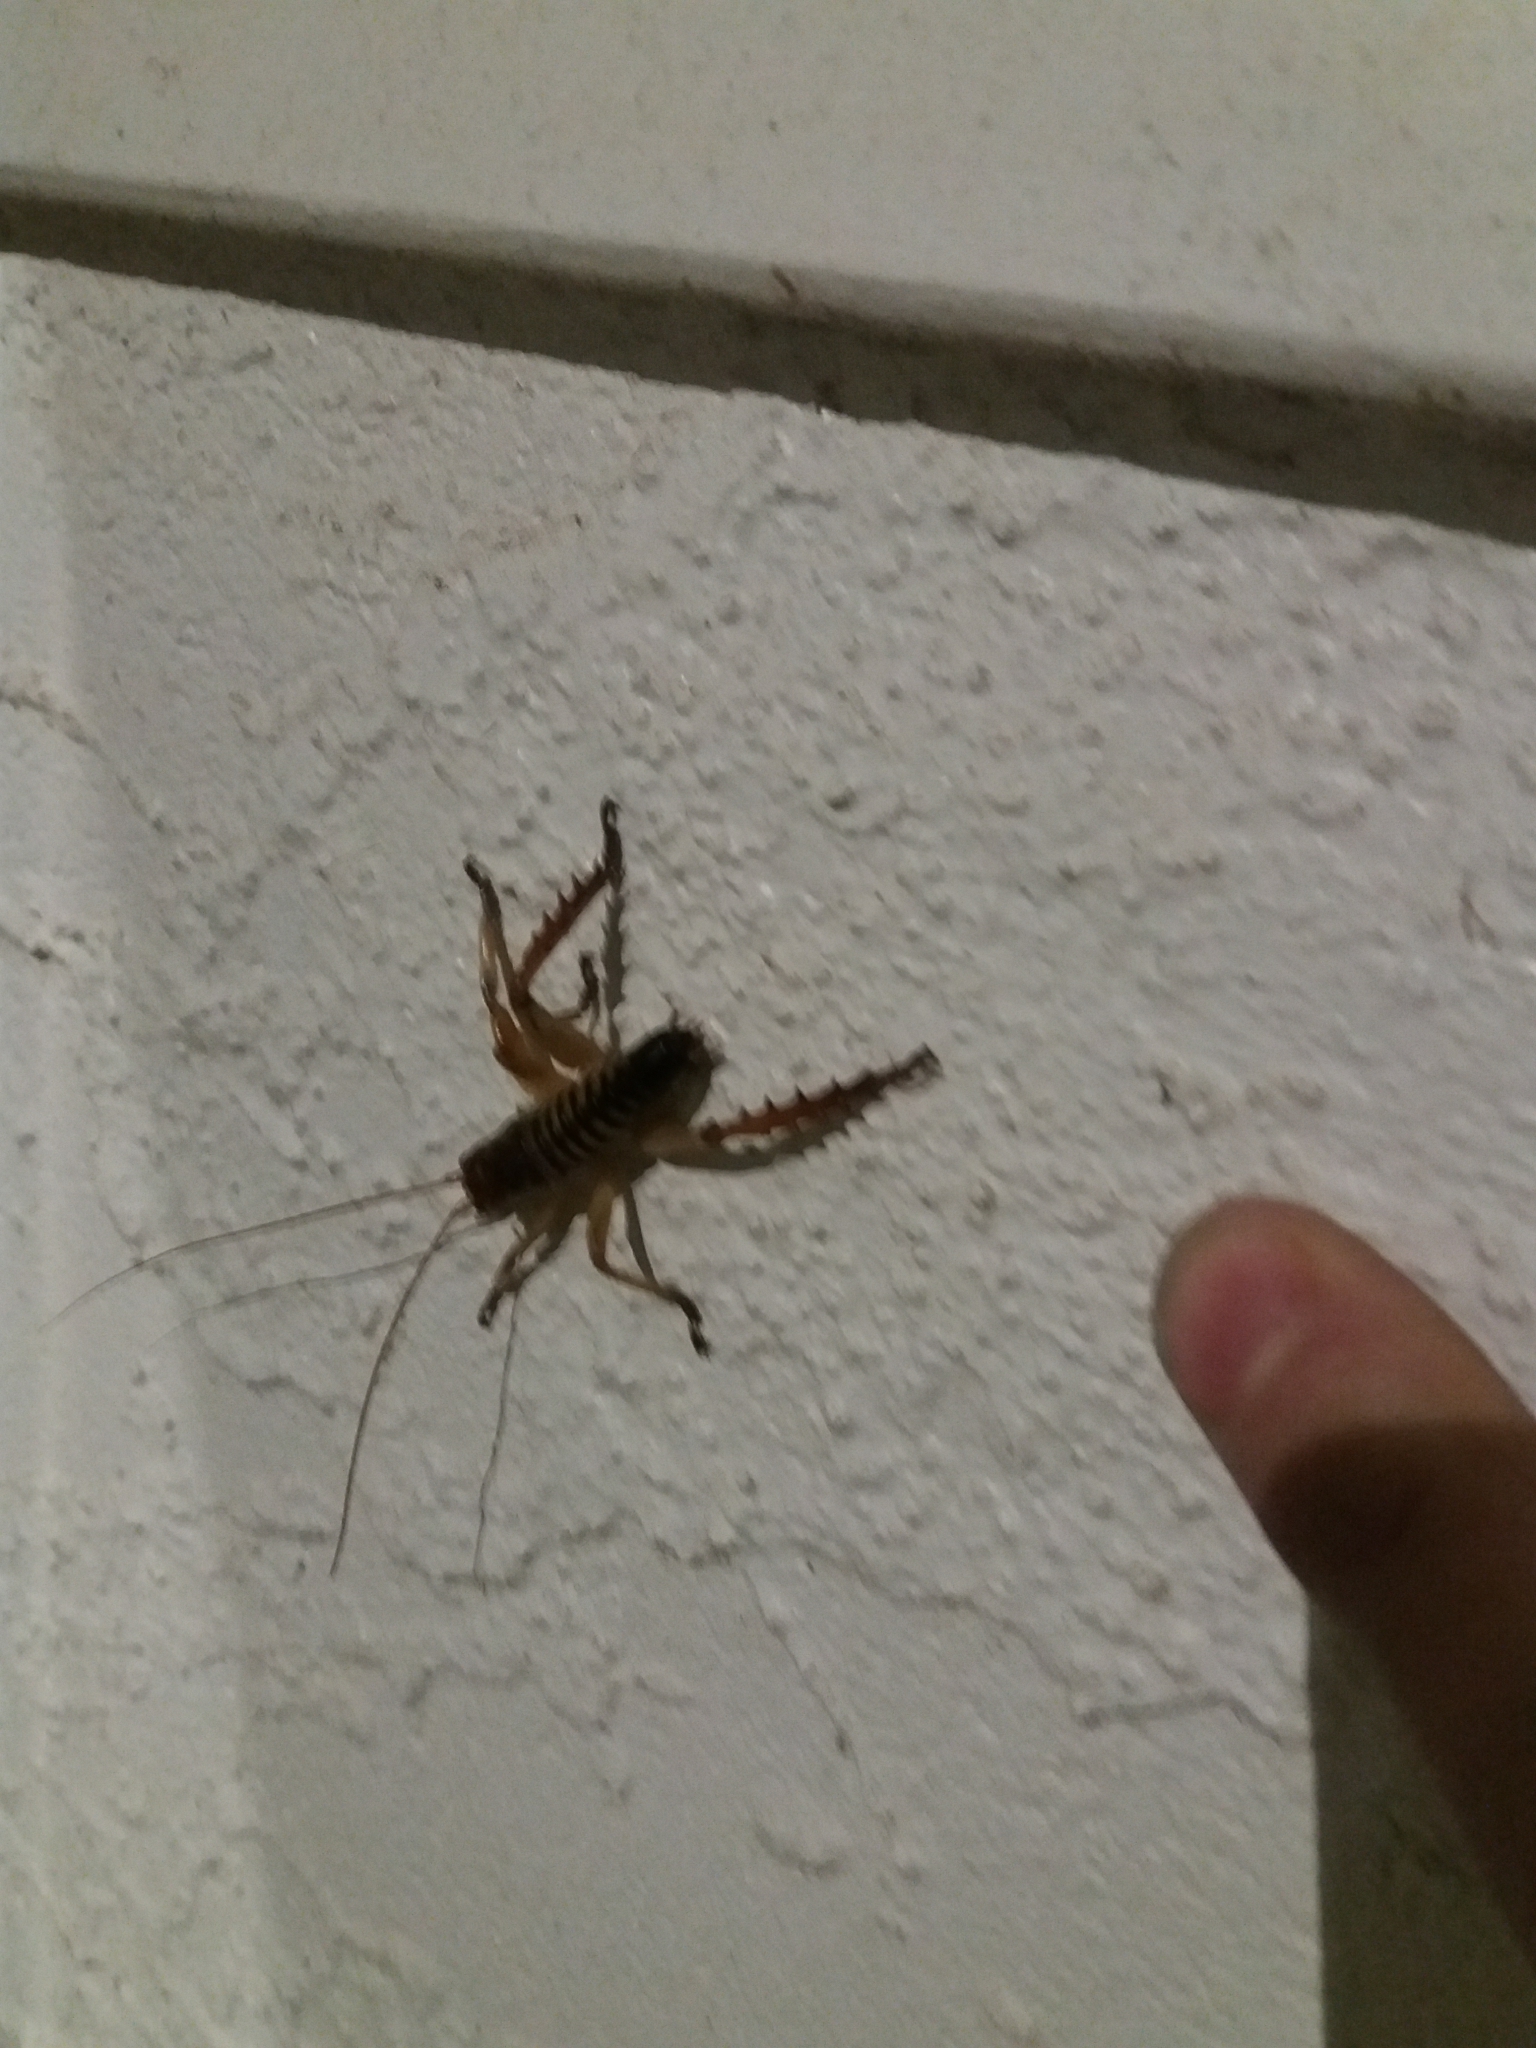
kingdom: Animalia
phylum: Arthropoda
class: Insecta
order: Orthoptera
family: Anostostomatidae
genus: Hemideina
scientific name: Hemideina crassidens
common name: Wellington tree weta
